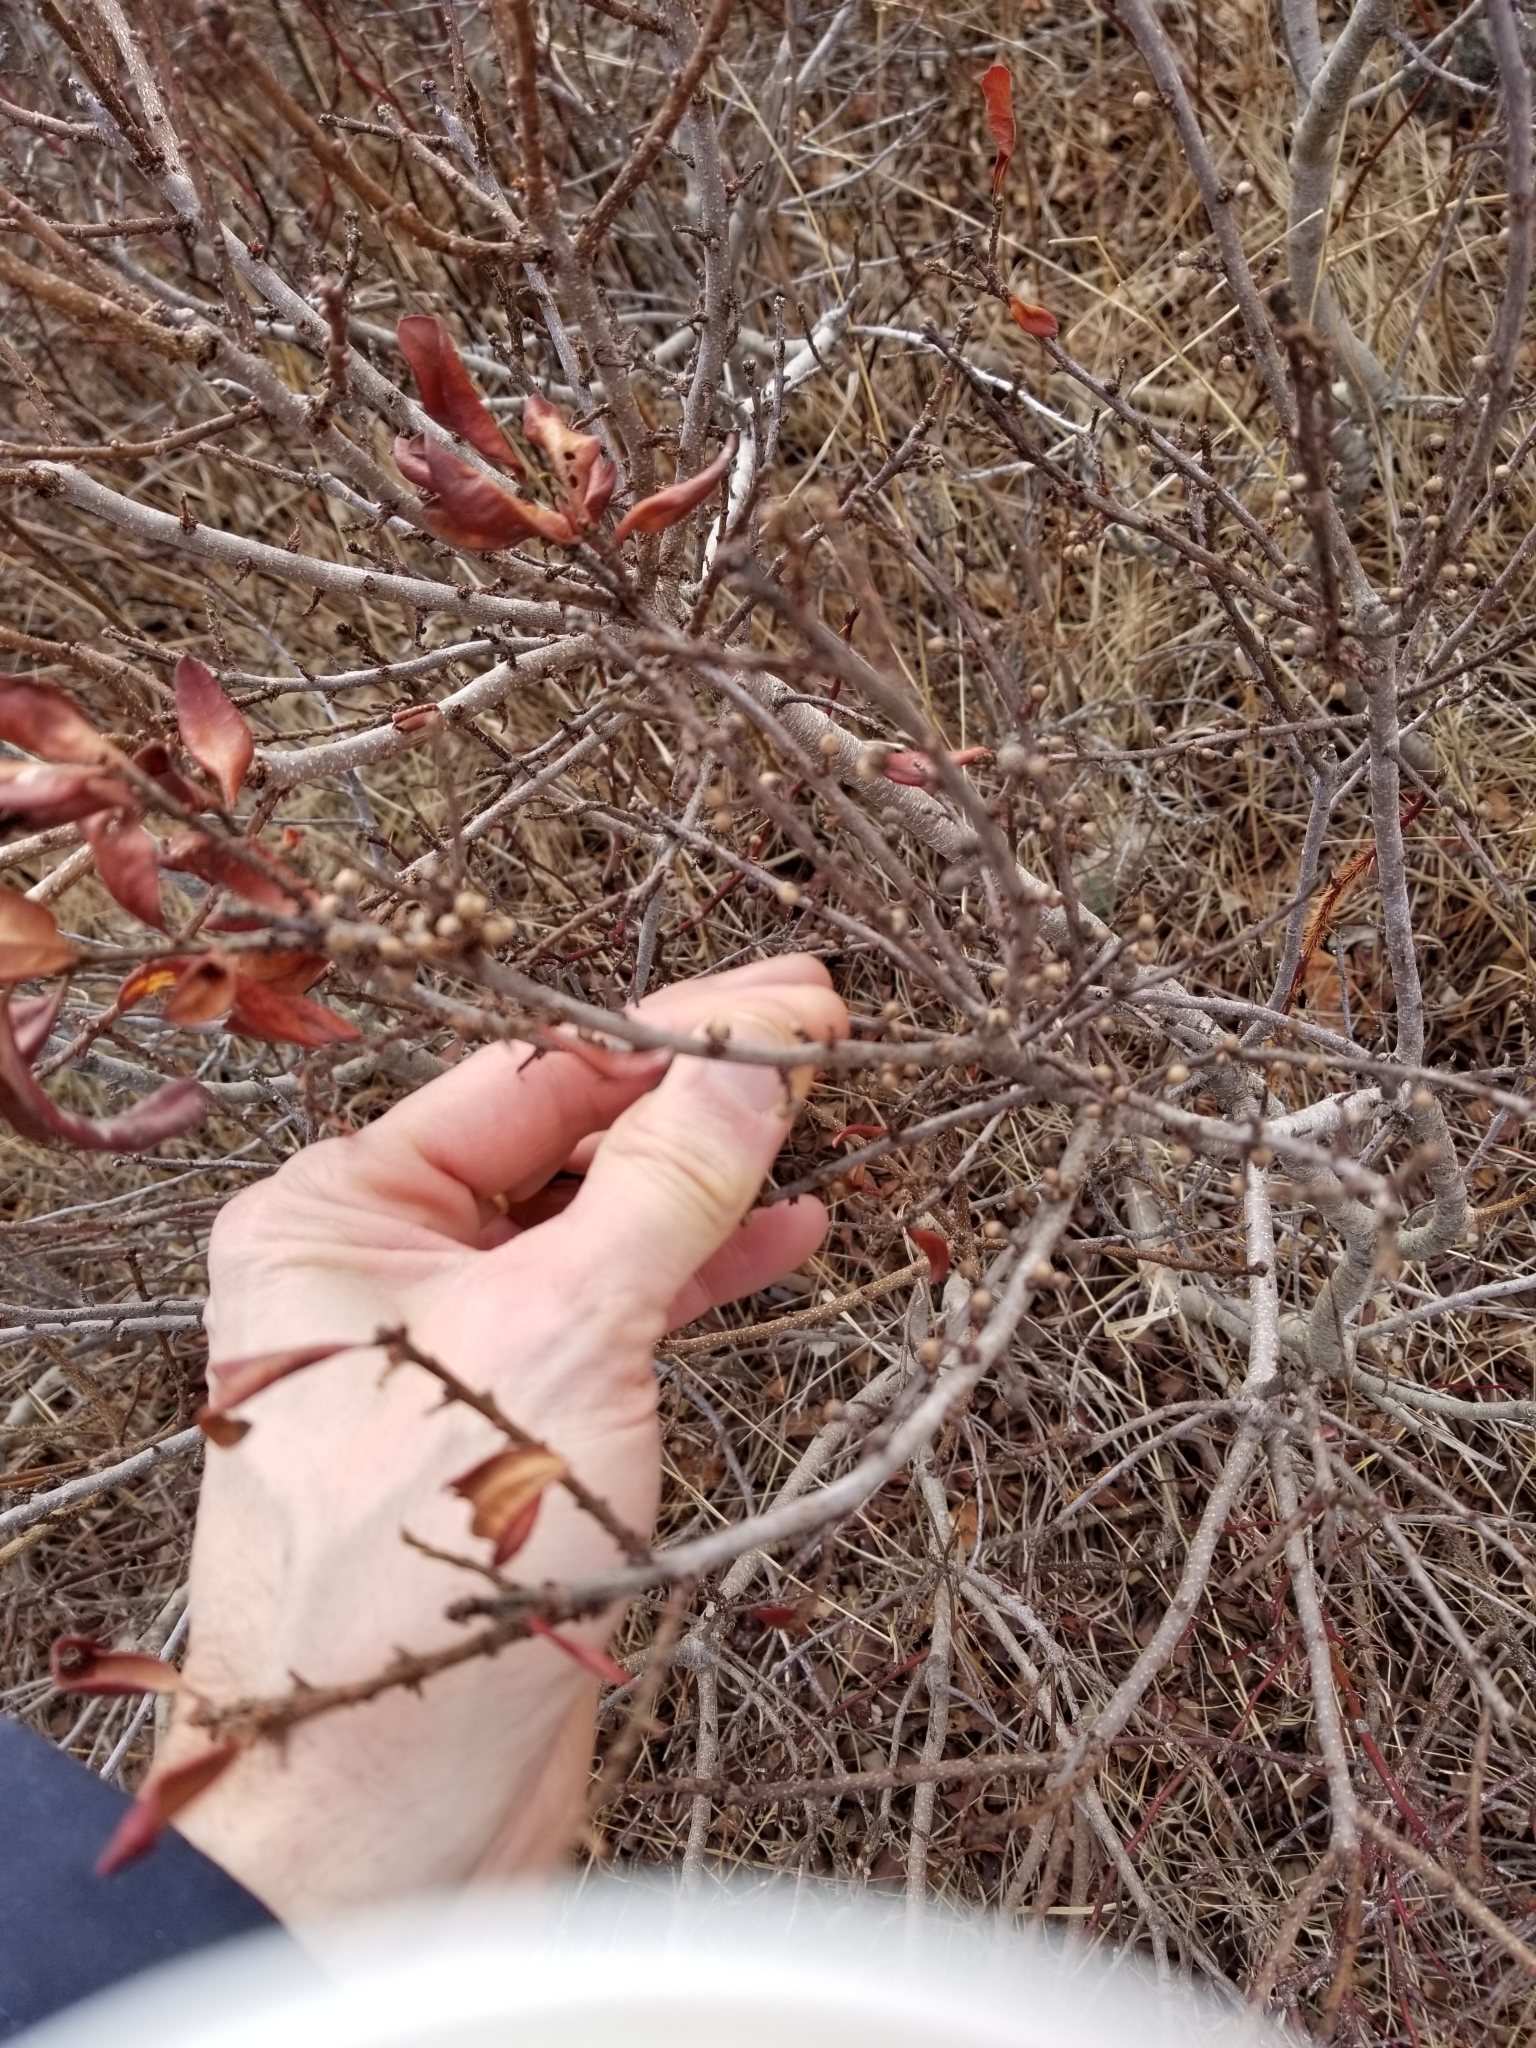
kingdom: Plantae
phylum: Tracheophyta
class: Magnoliopsida
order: Fagales
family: Myricaceae
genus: Morella
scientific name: Morella pensylvanica
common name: Northern bayberry
